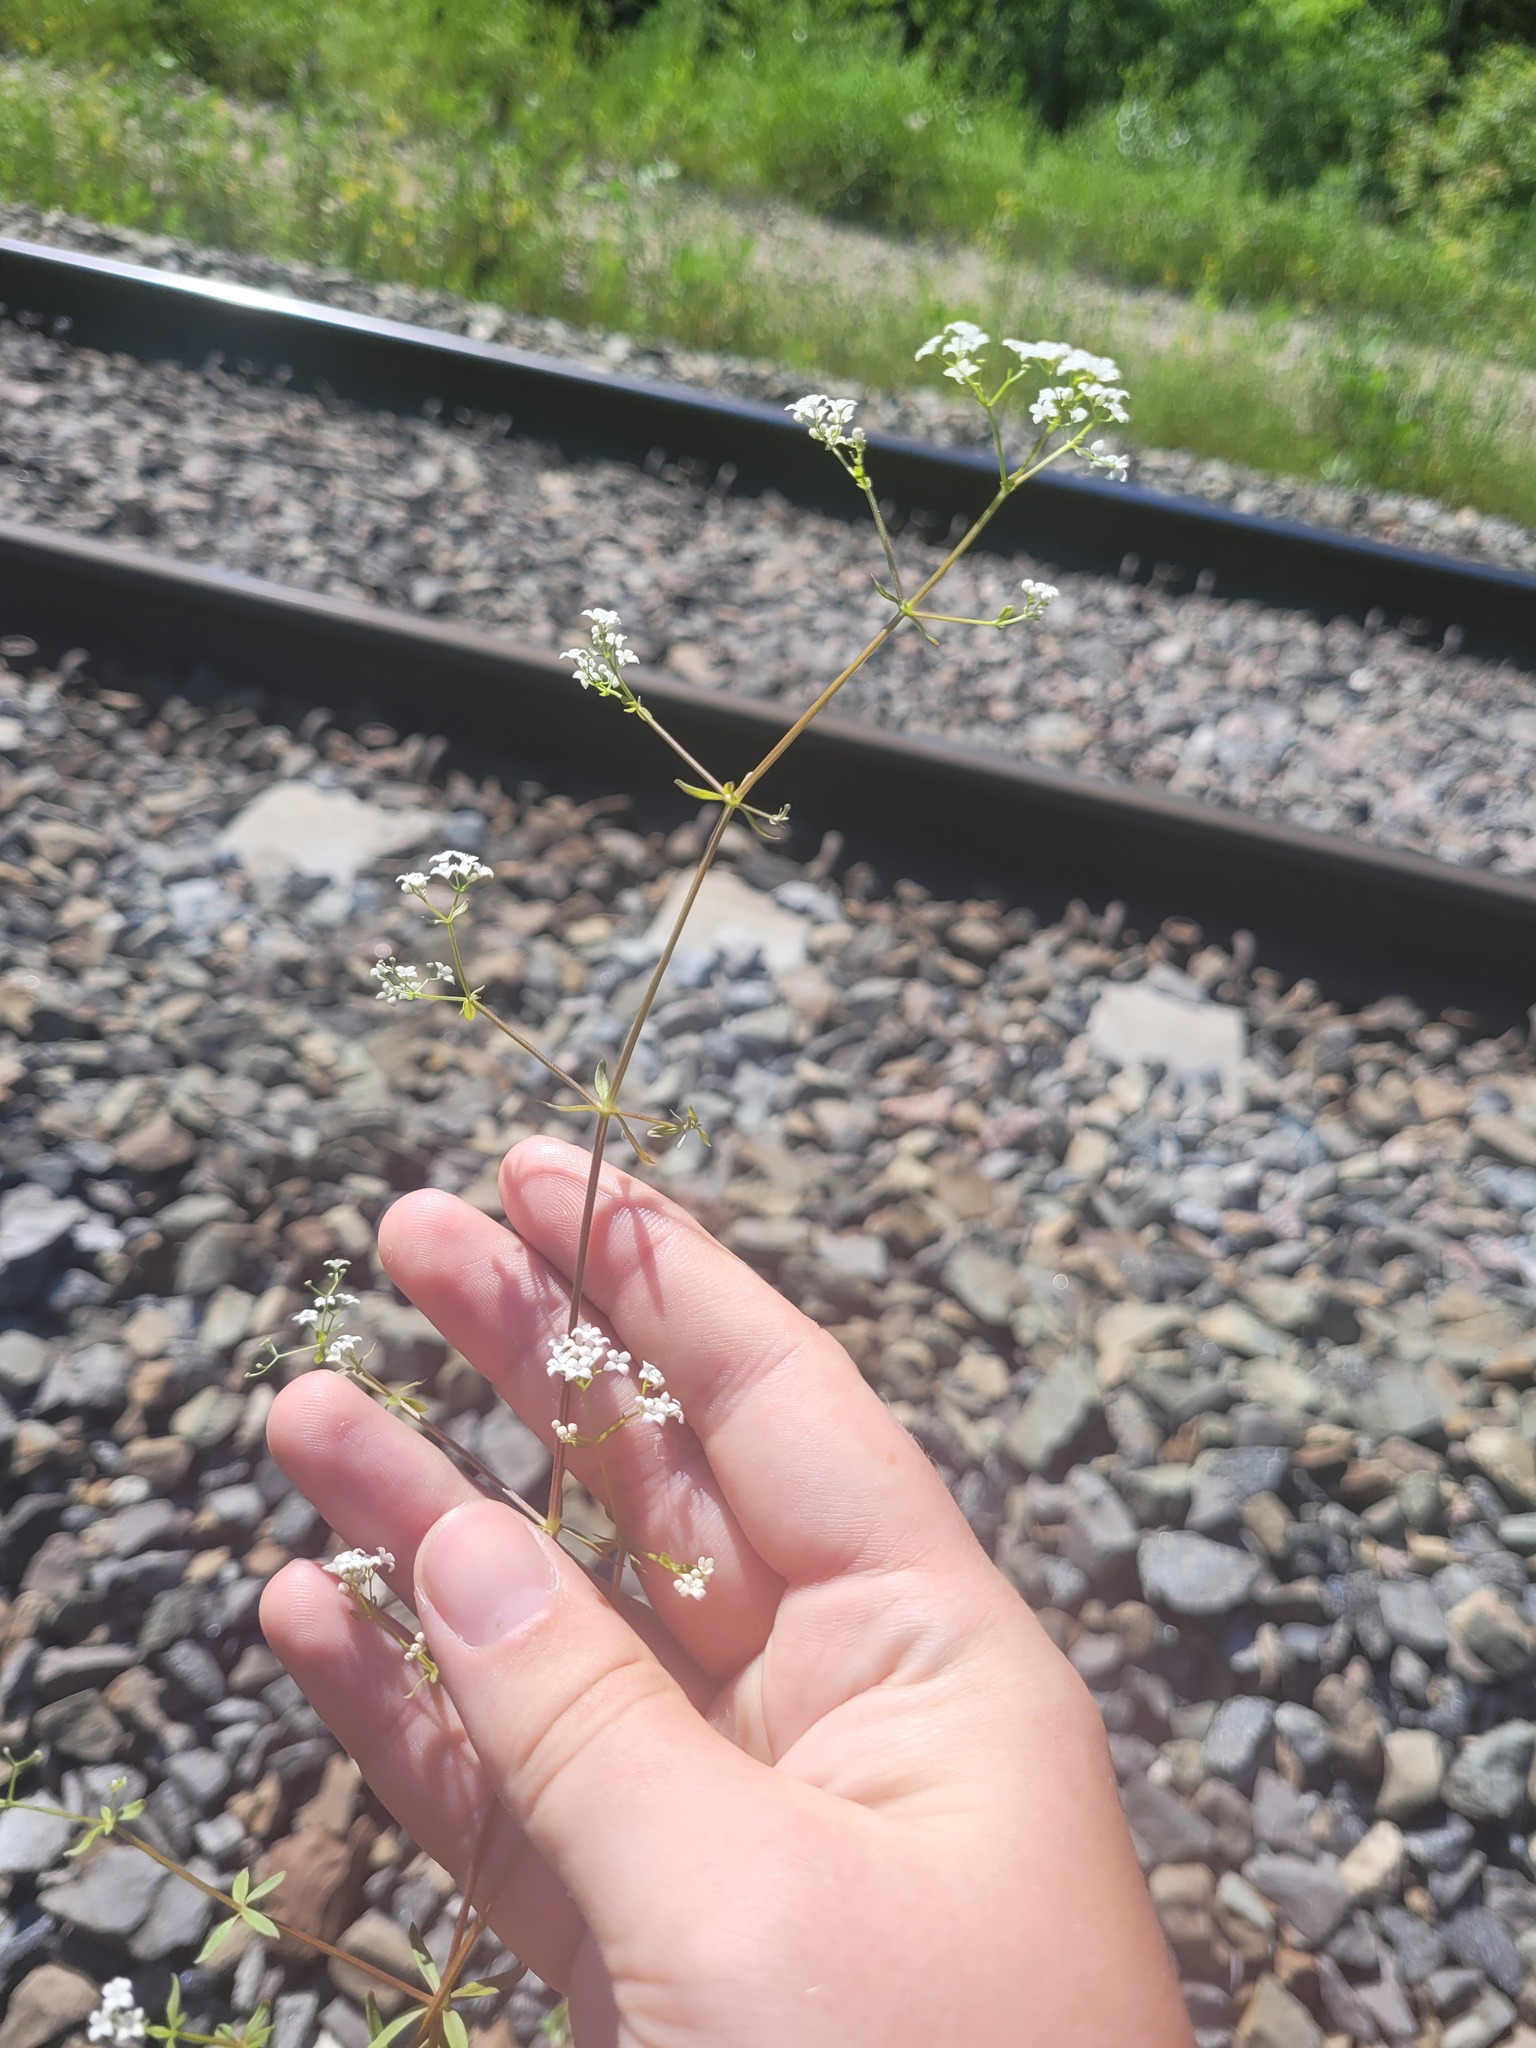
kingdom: Plantae
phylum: Tracheophyta
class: Magnoliopsida
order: Gentianales
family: Rubiaceae
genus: Galium
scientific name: Galium palustre
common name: Common marsh-bedstraw
